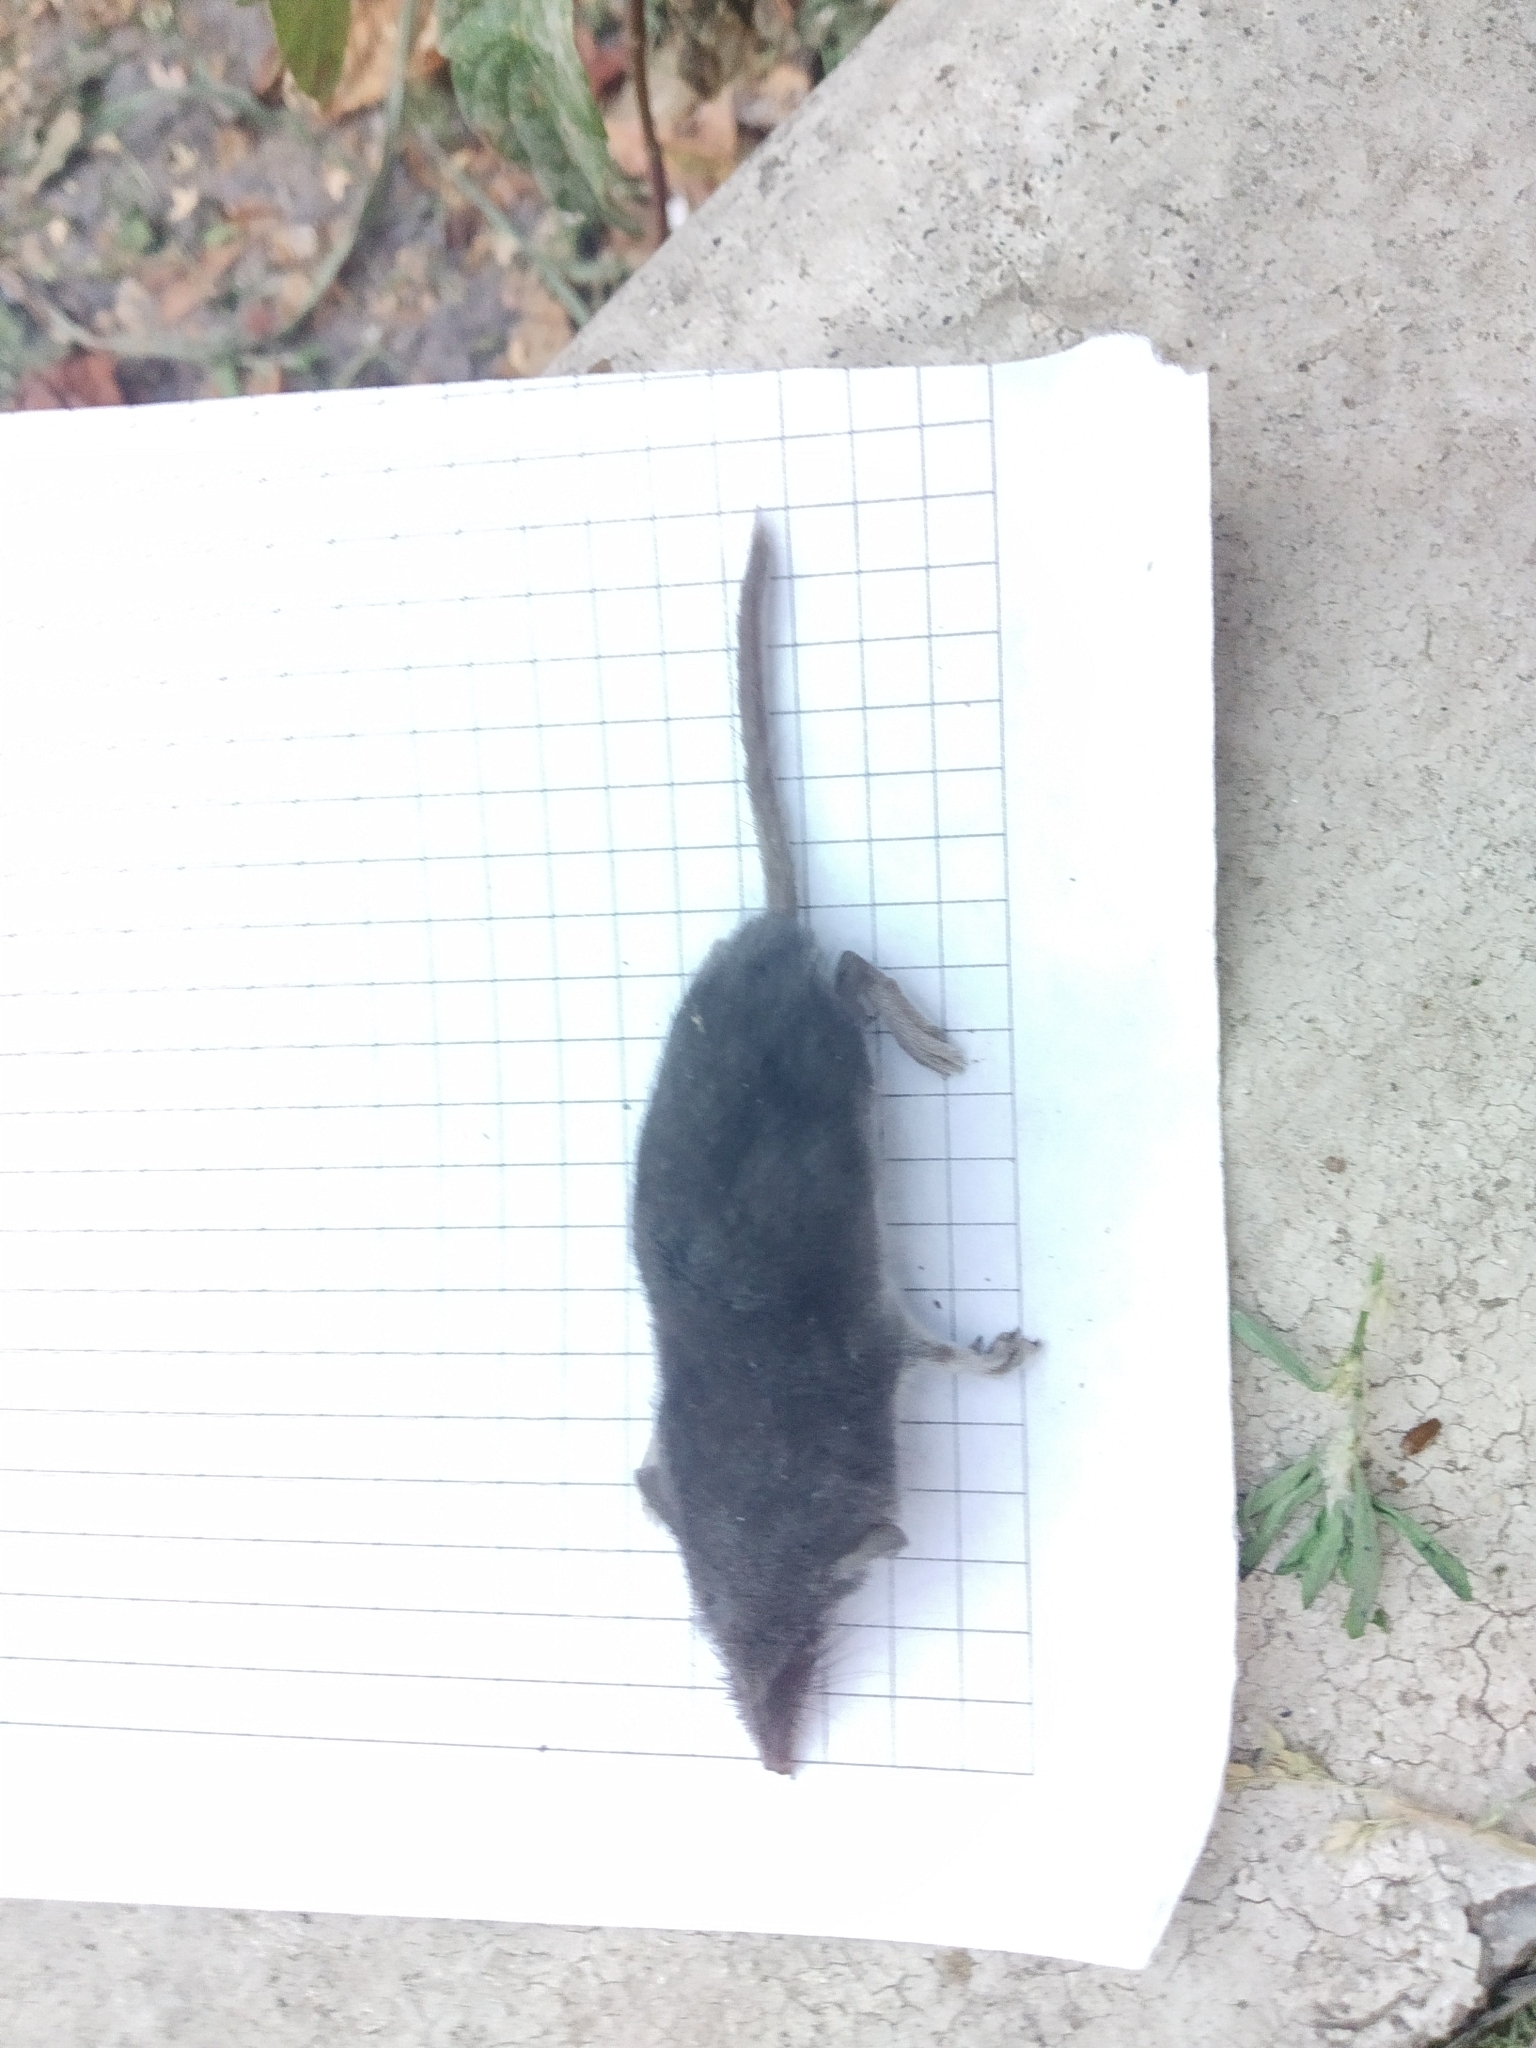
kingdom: Animalia
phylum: Chordata
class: Mammalia
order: Soricomorpha
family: Soricidae
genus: Crocidura
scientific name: Crocidura suaveolens
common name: Lesser white-toothed shrew
